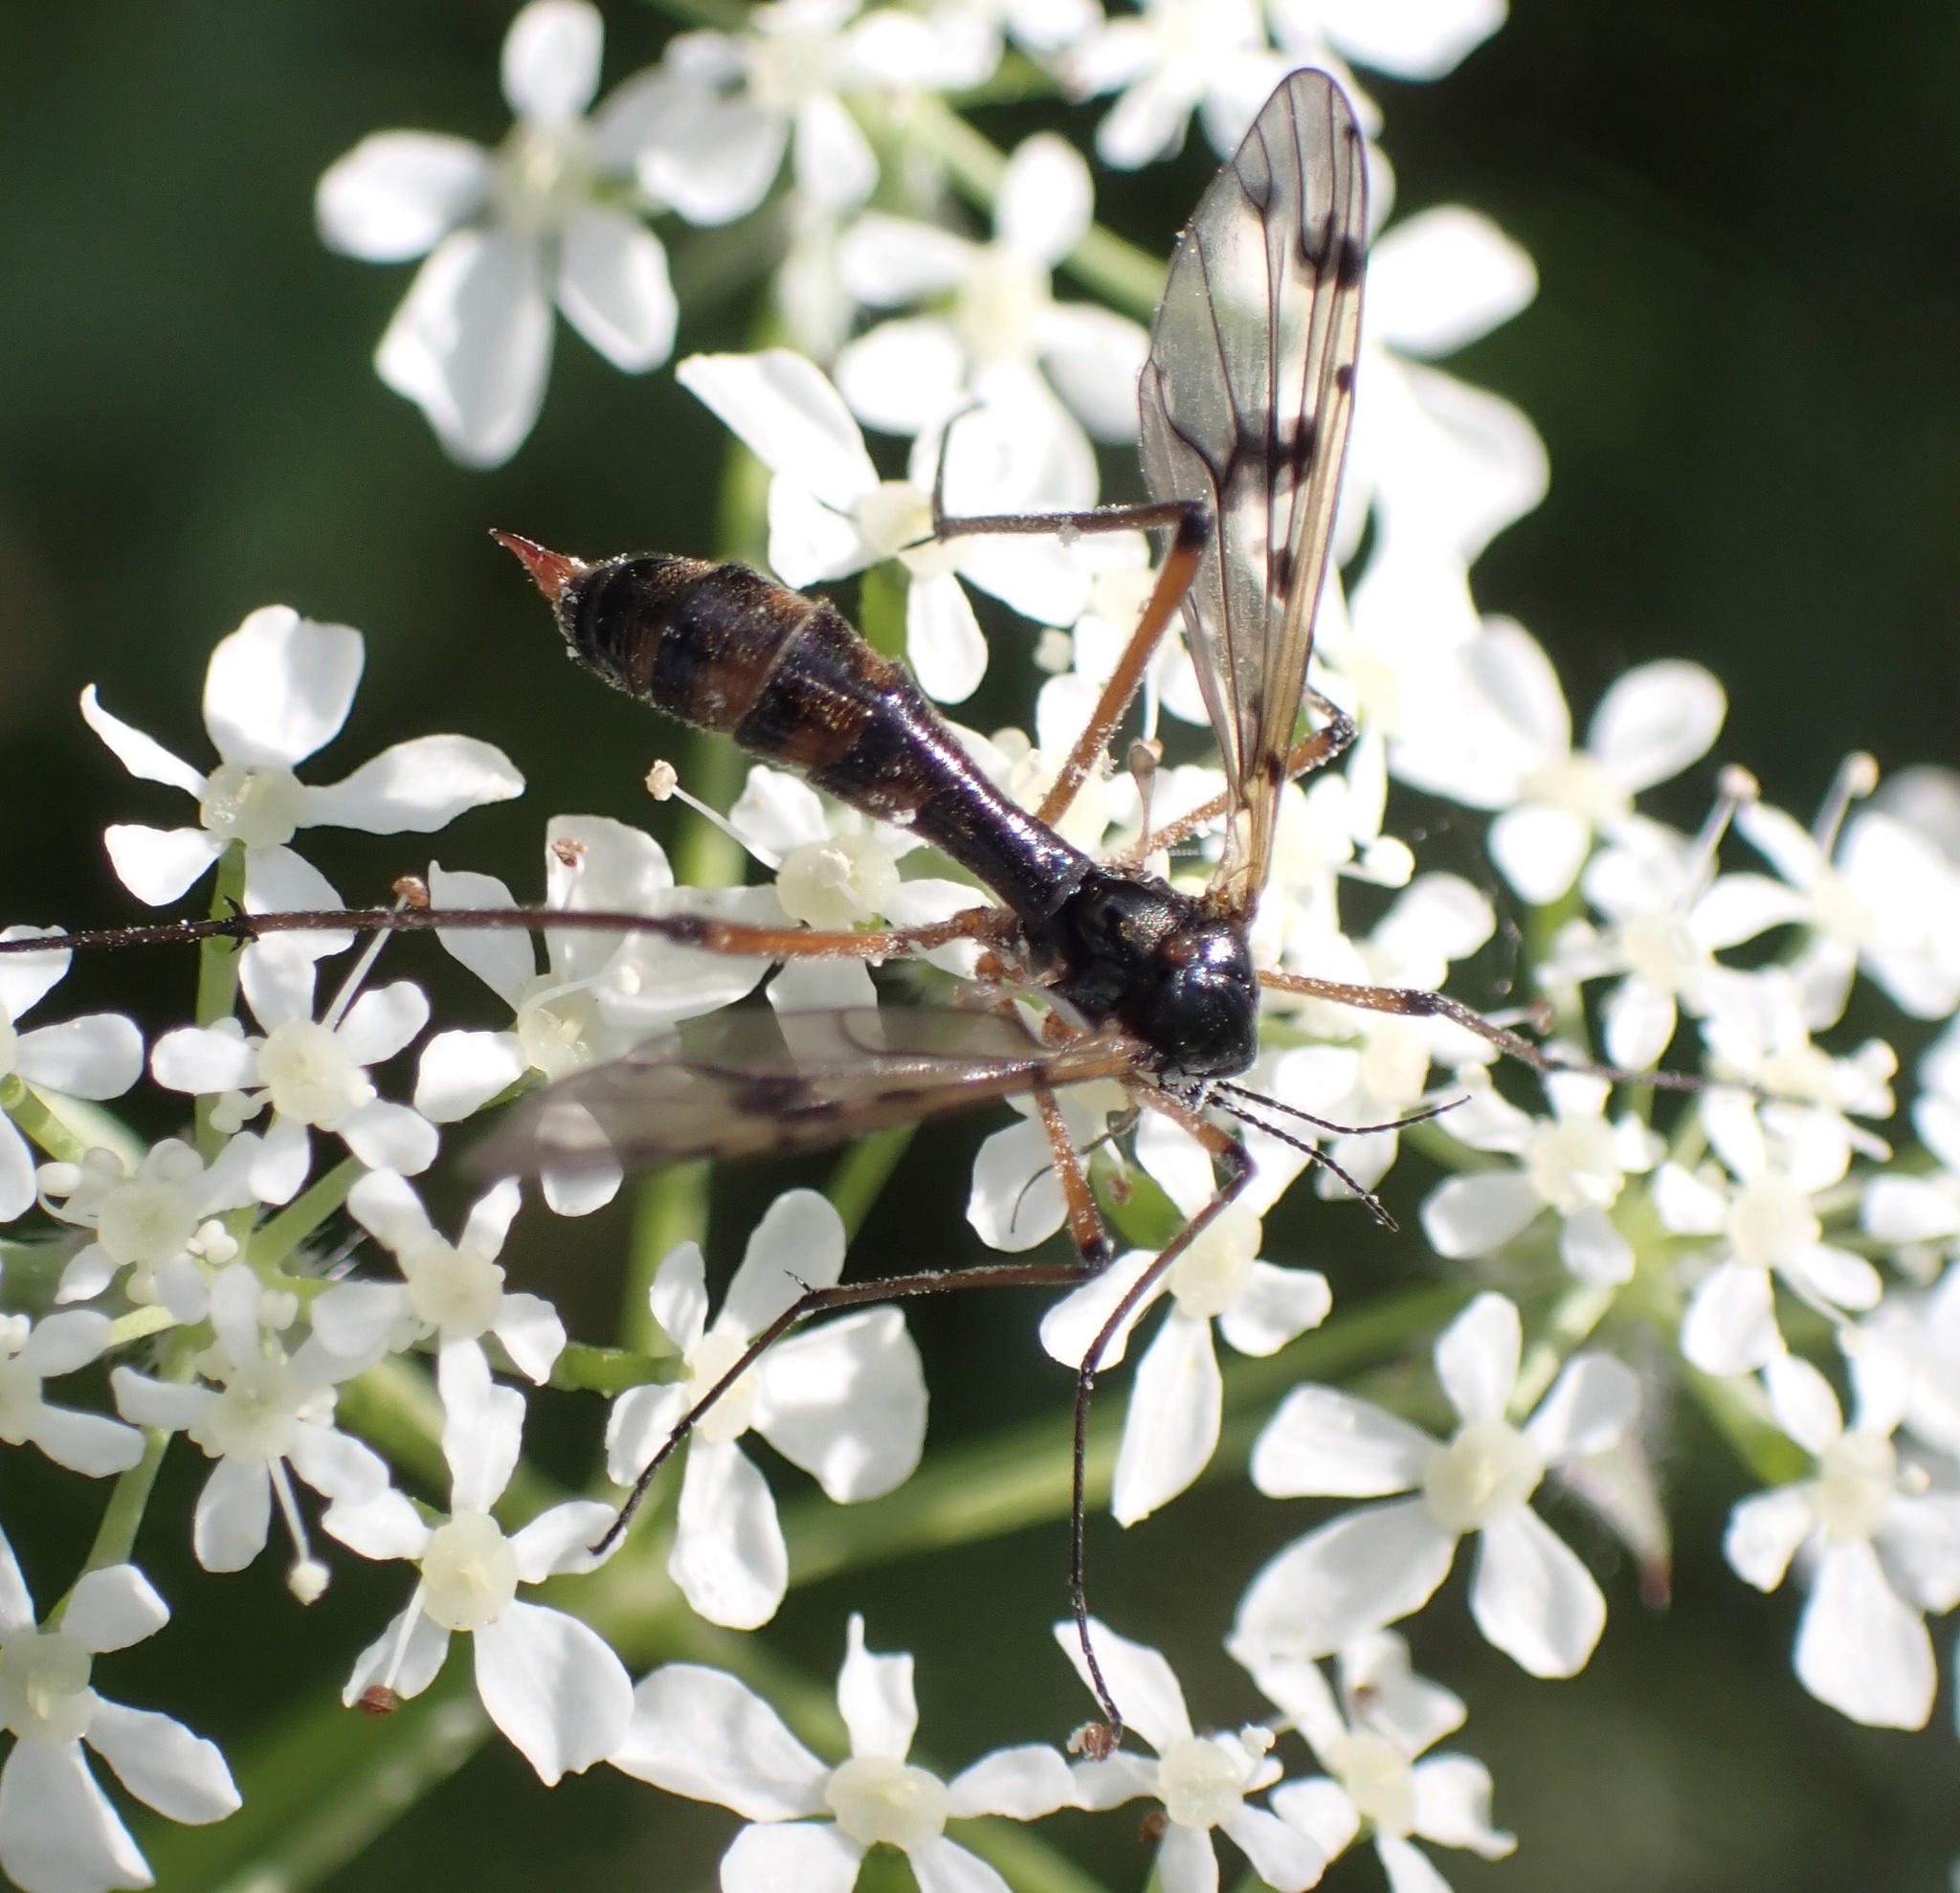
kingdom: Animalia
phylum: Arthropoda
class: Insecta
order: Diptera
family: Ptychopteridae
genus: Ptychoptera
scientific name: Ptychoptera contaminata
